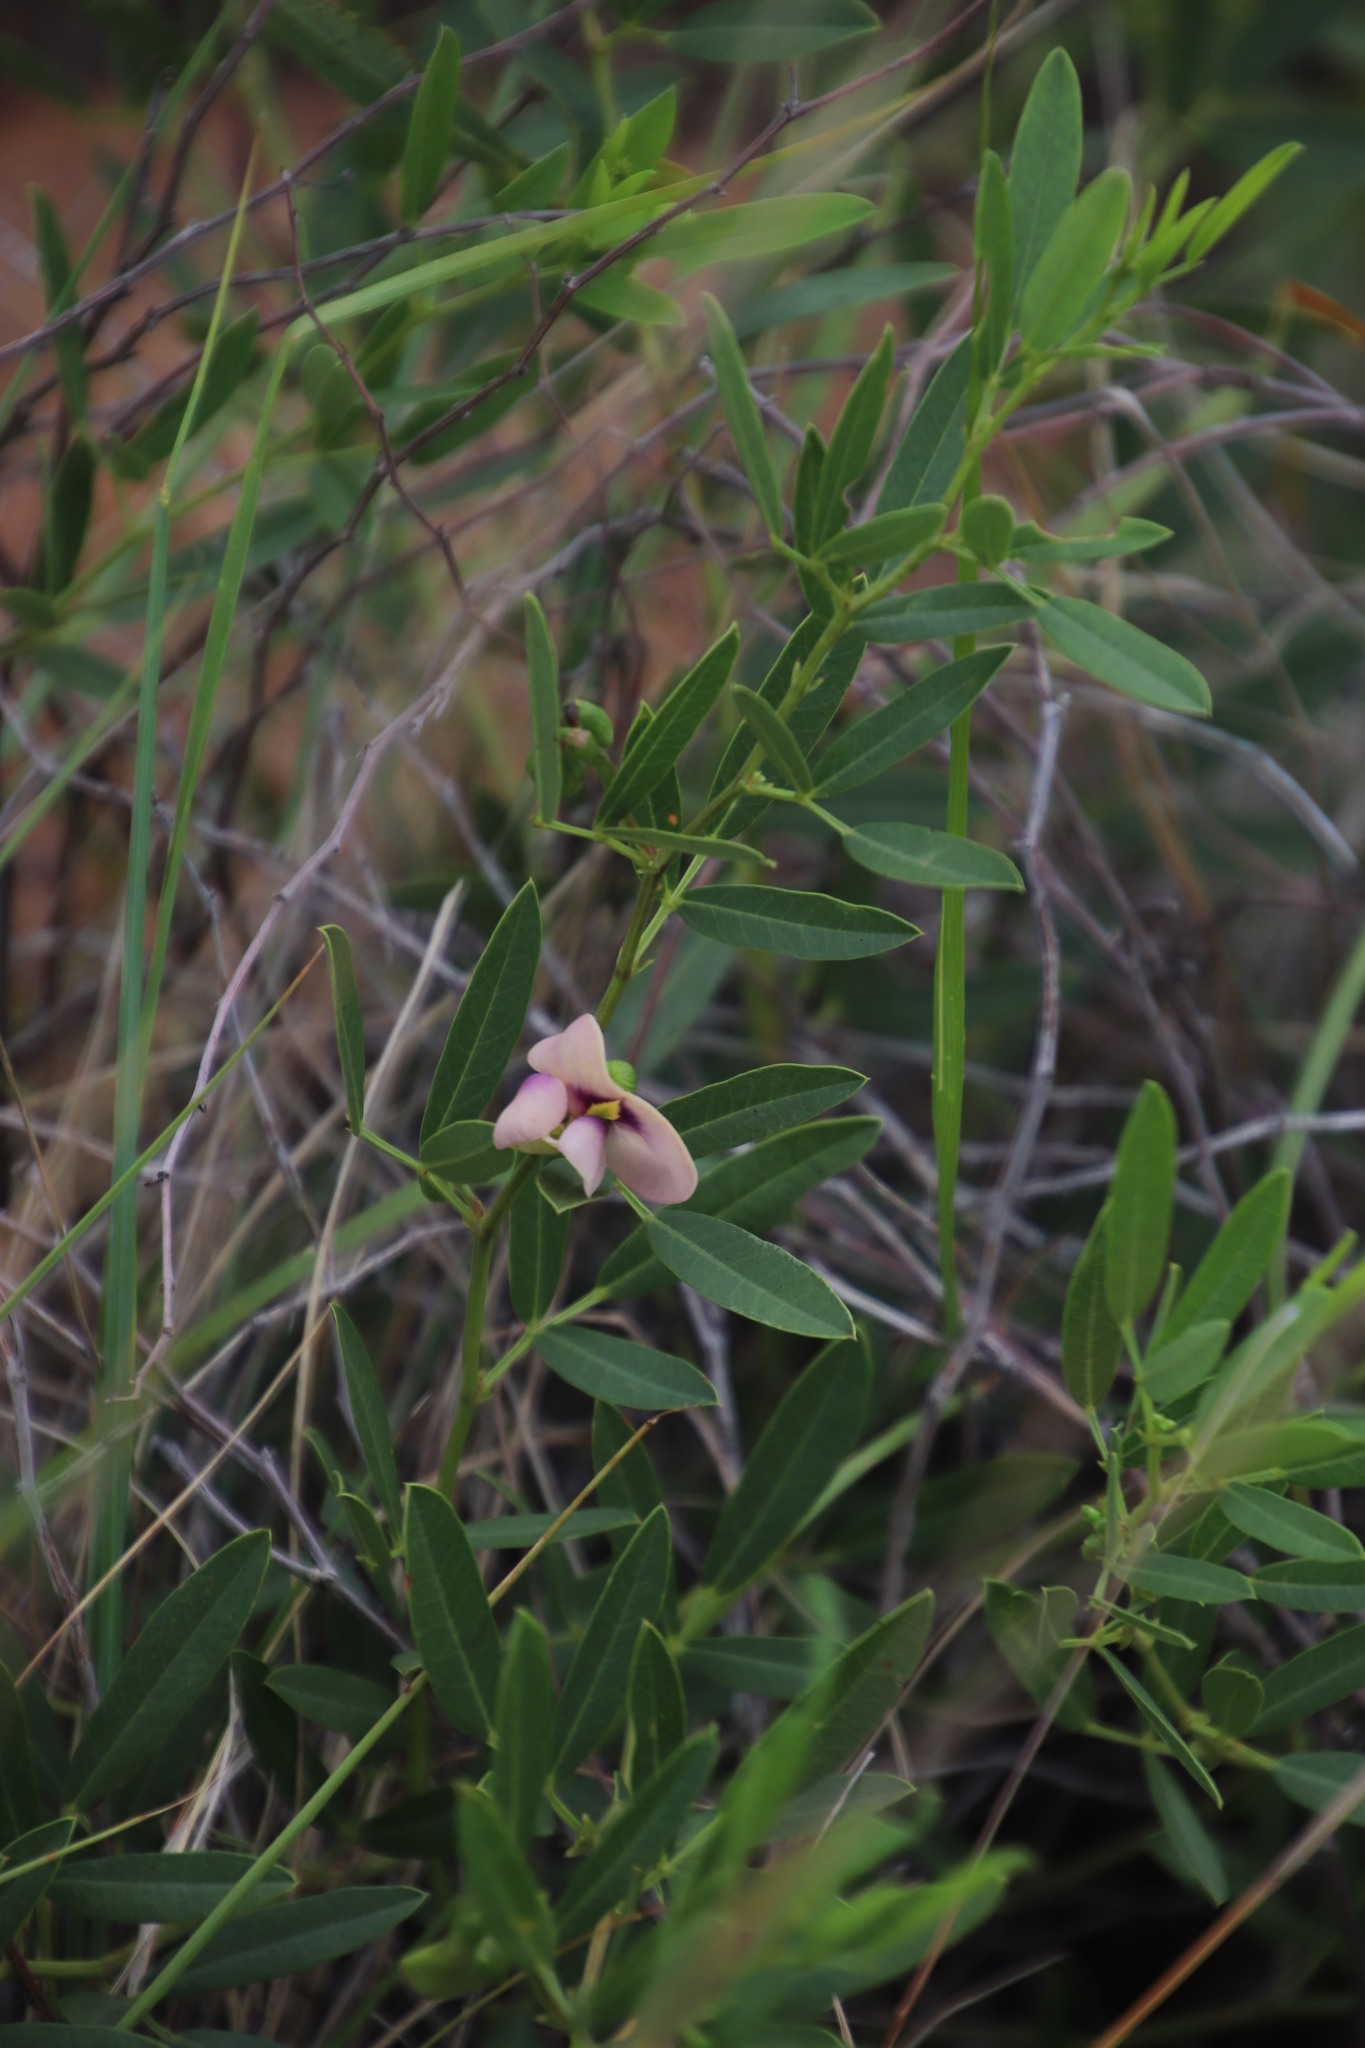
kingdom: Plantae
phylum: Tracheophyta
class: Magnoliopsida
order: Fabales
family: Fabaceae
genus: Sphenostylis
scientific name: Sphenostylis angustifolia
